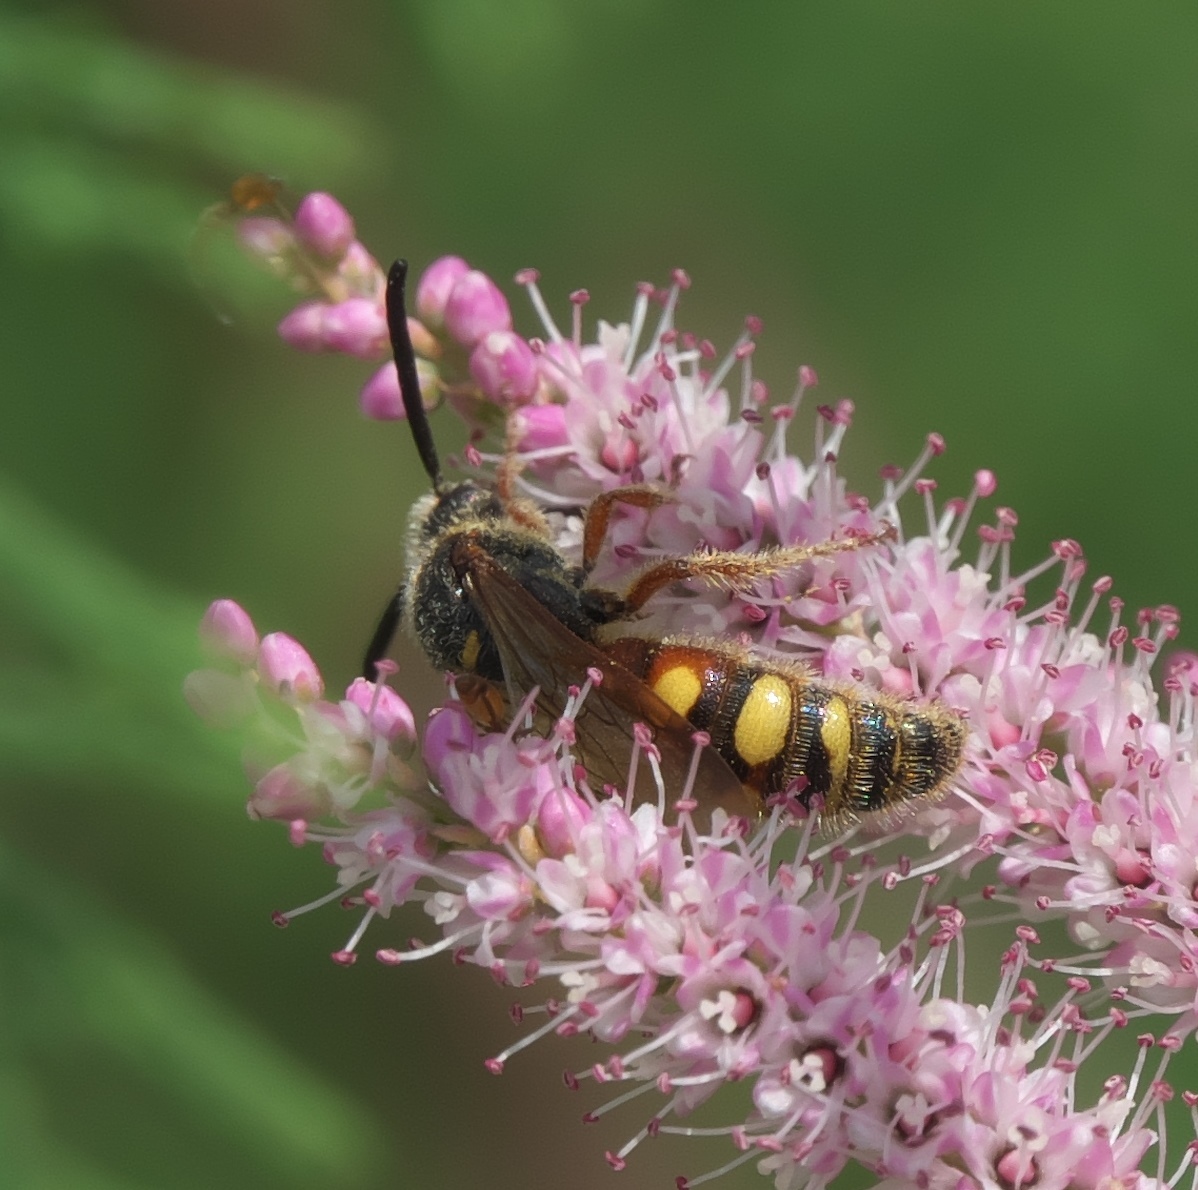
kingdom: Animalia
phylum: Arthropoda
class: Insecta
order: Hymenoptera
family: Scoliidae
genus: Scolia
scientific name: Scolia nobilitata
